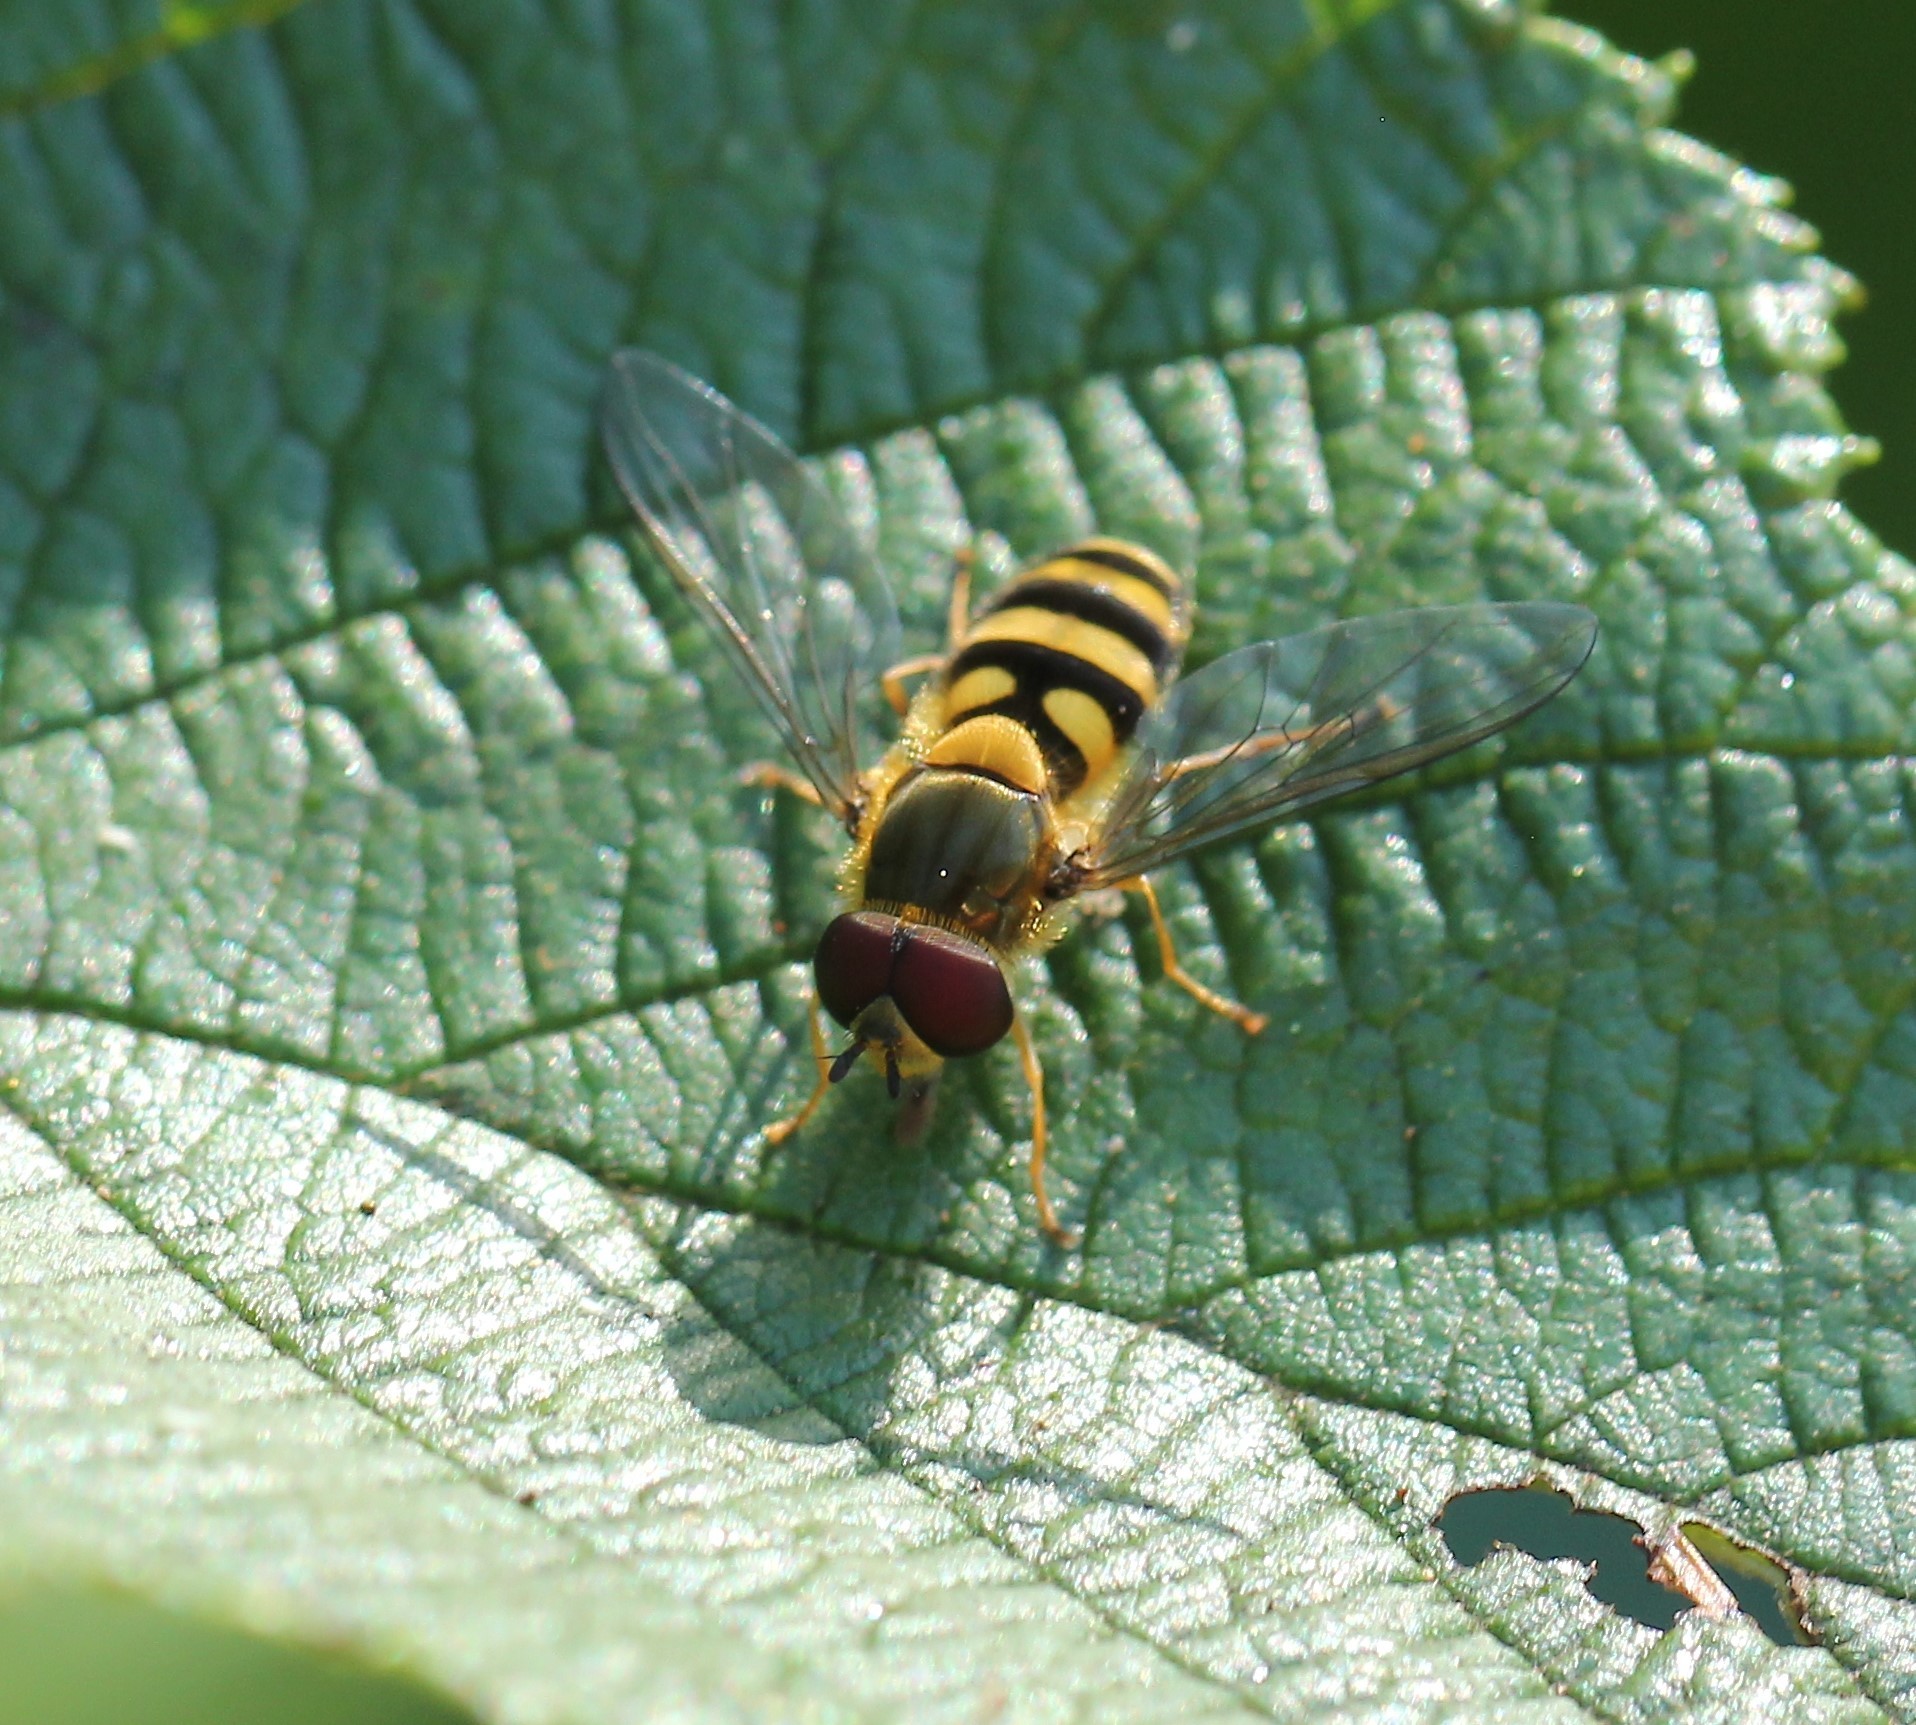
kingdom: Animalia
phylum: Arthropoda
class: Insecta
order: Diptera
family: Syrphidae
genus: Syrphus
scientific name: Syrphus
